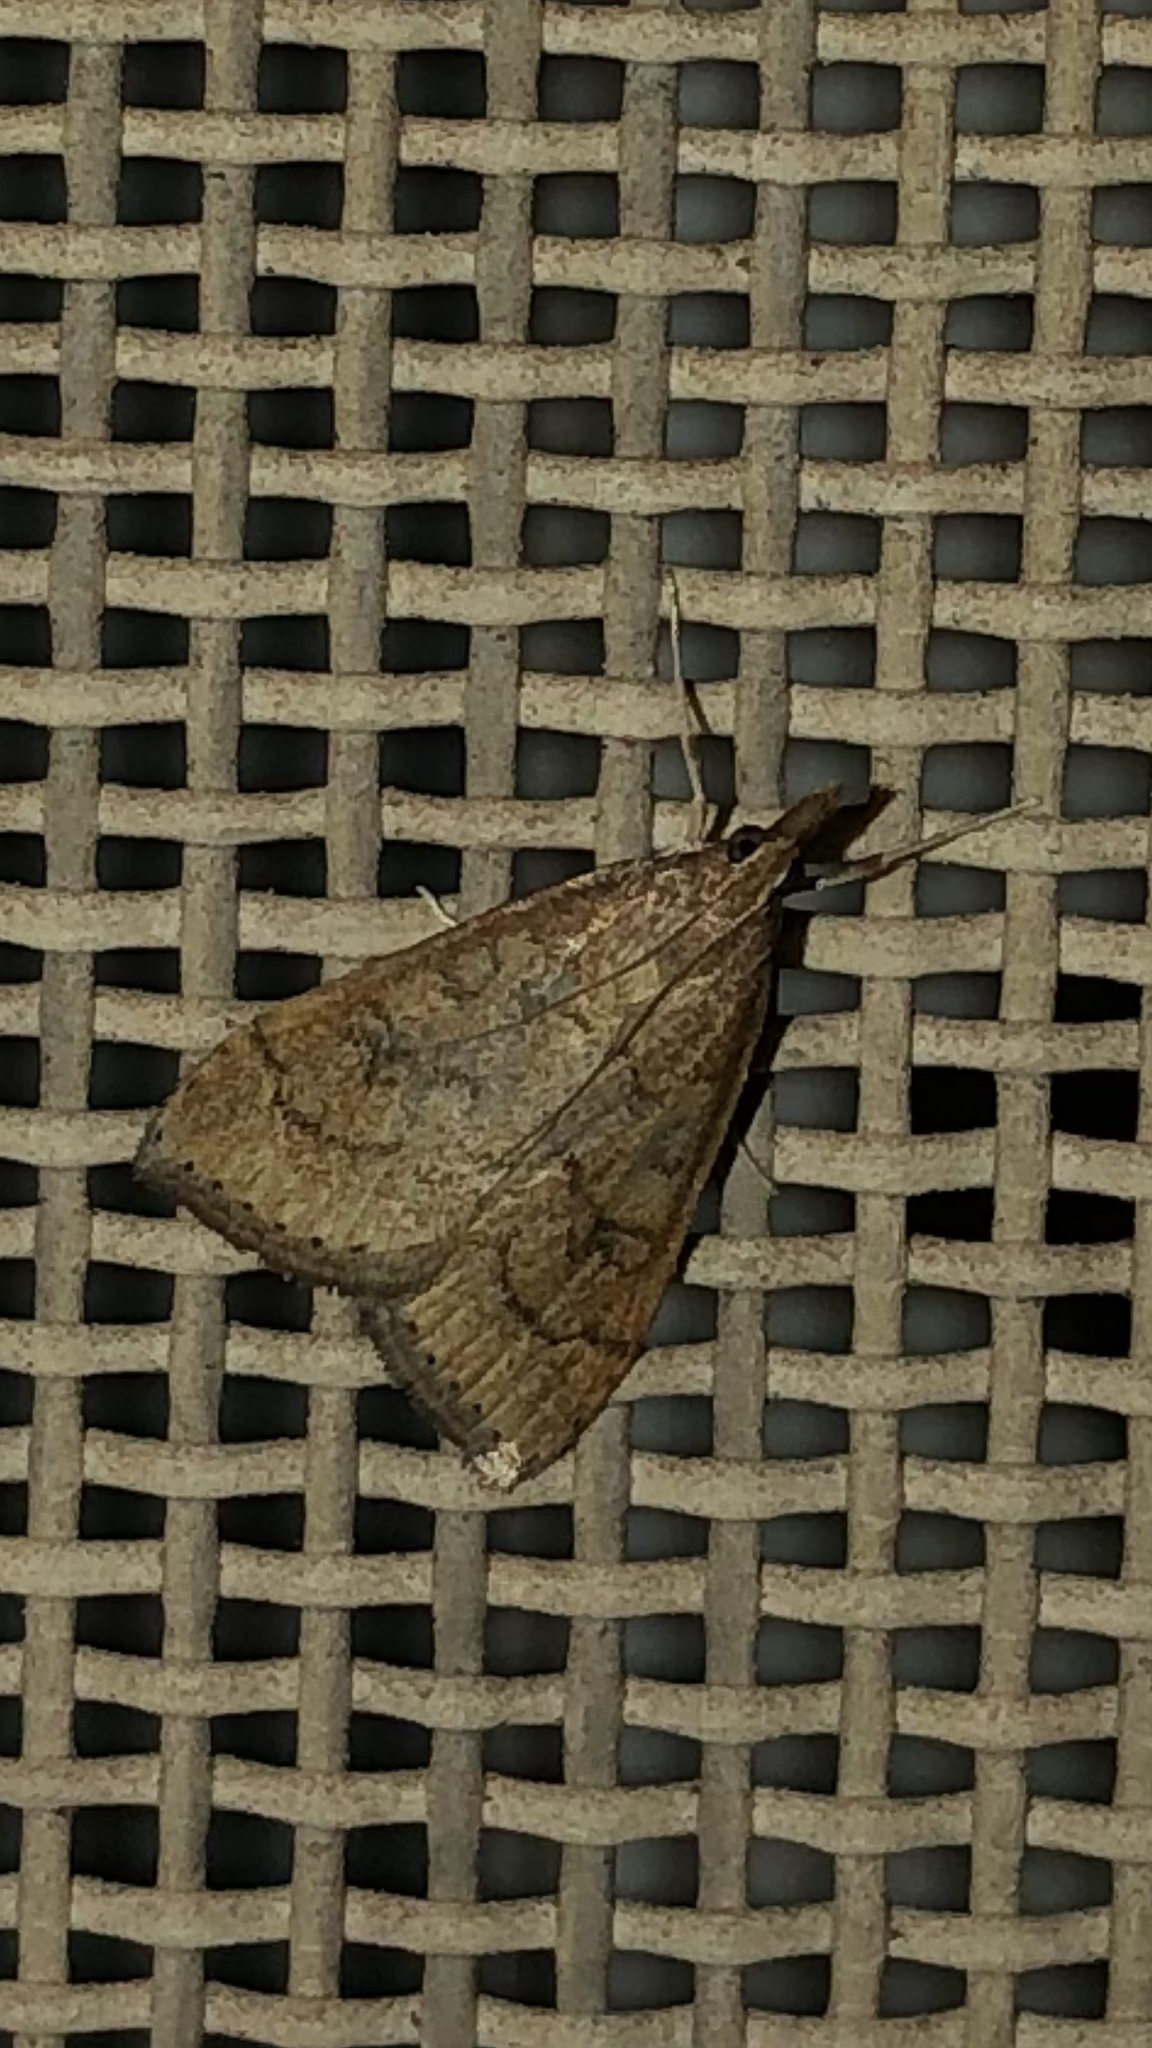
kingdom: Animalia
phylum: Arthropoda
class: Insecta
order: Lepidoptera
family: Crambidae
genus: Udea
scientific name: Udea rubigalis
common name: Celery leaftier moth
